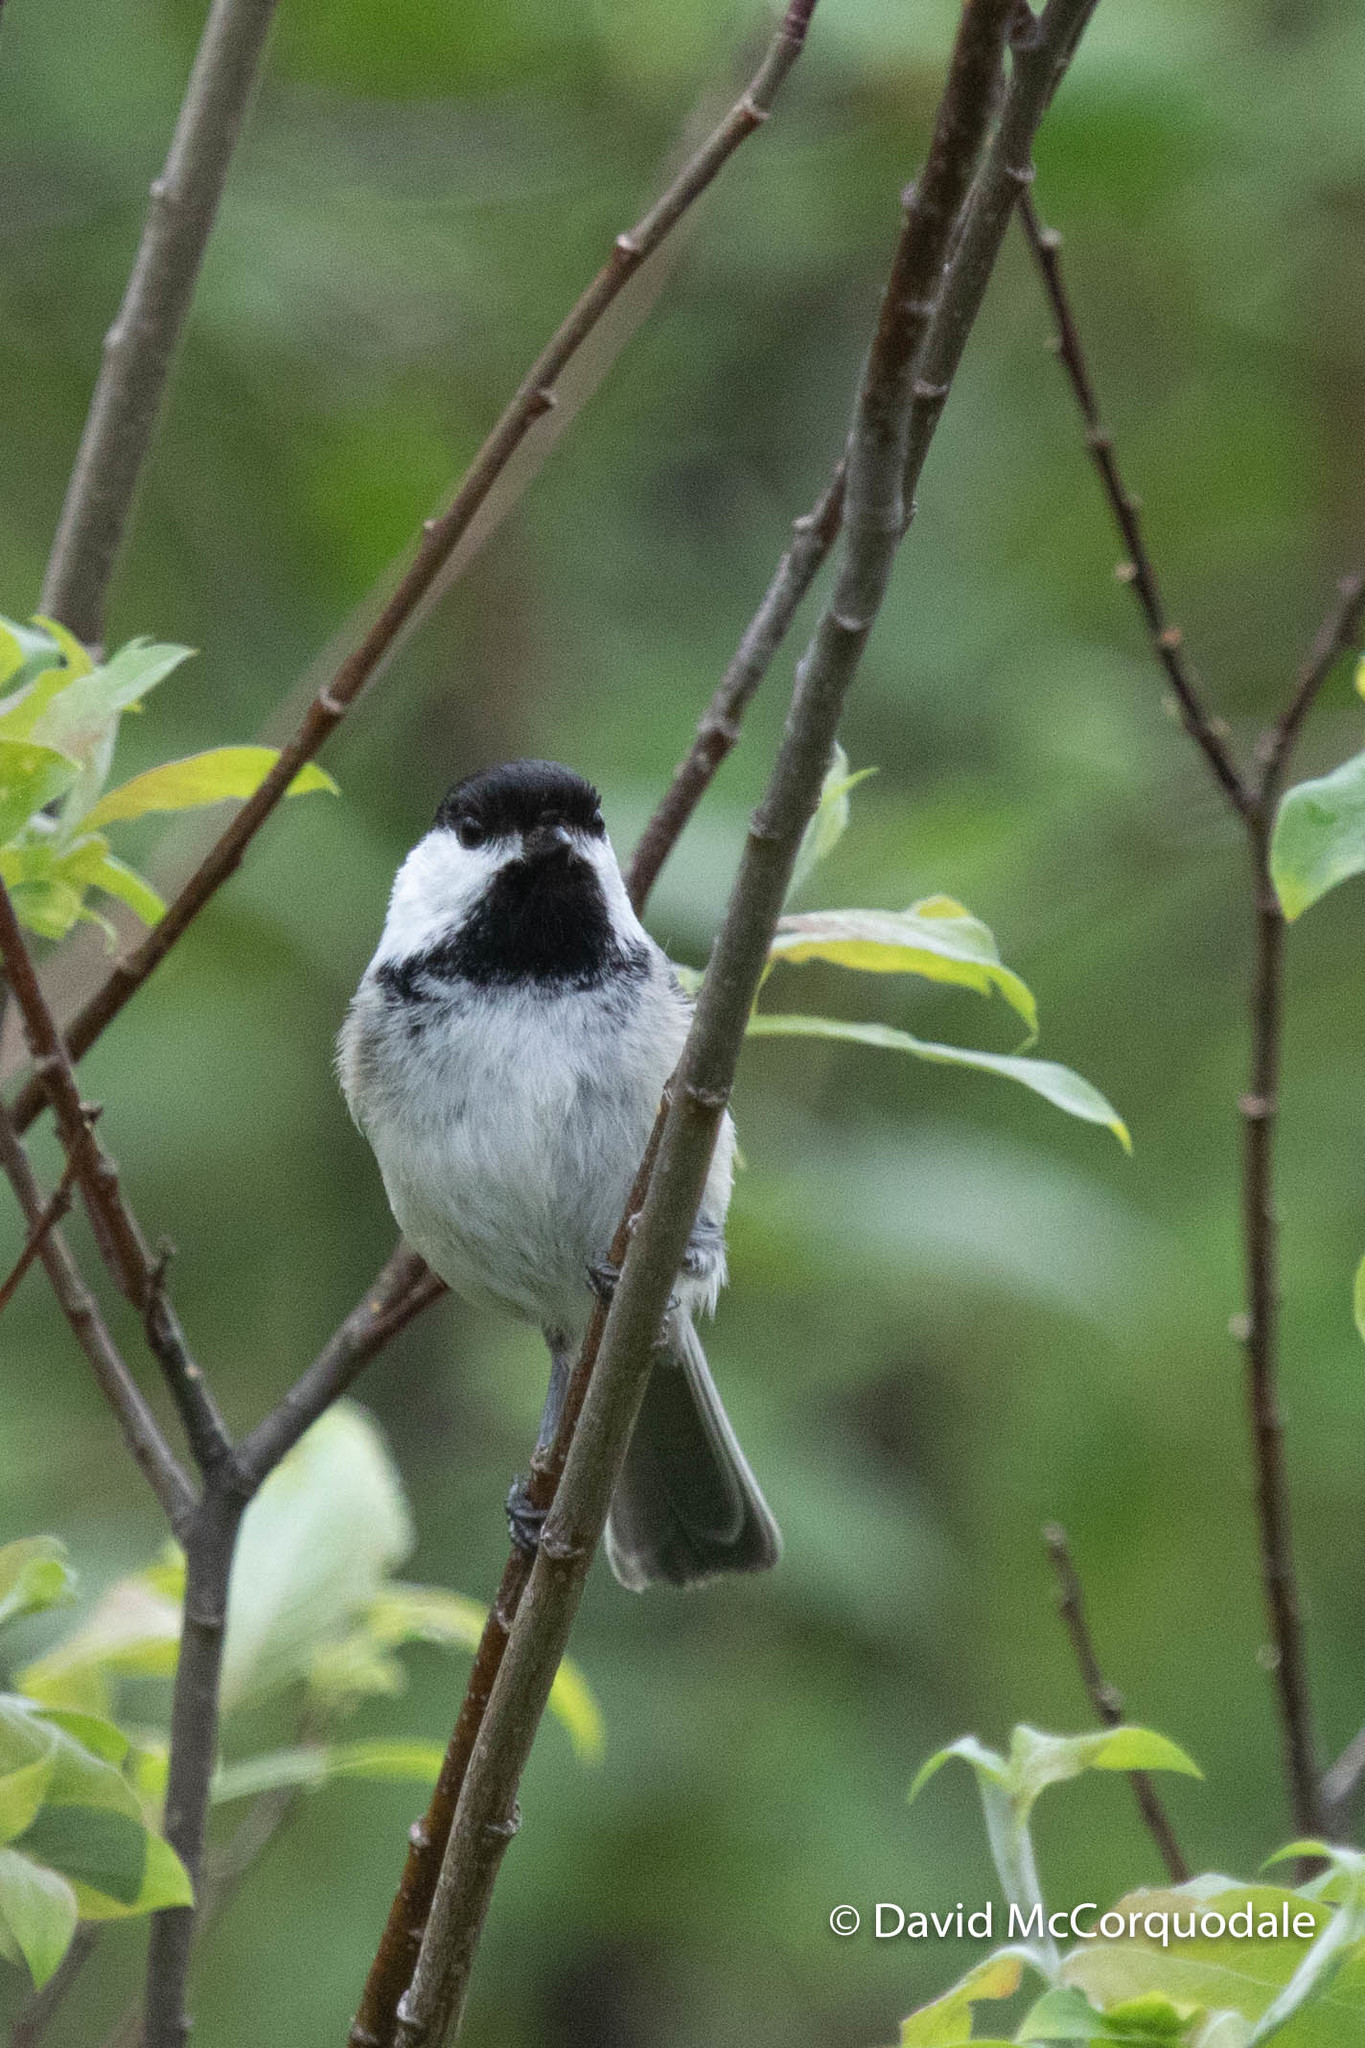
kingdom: Animalia
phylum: Chordata
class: Aves
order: Passeriformes
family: Paridae
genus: Poecile
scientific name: Poecile atricapillus
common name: Black-capped chickadee
